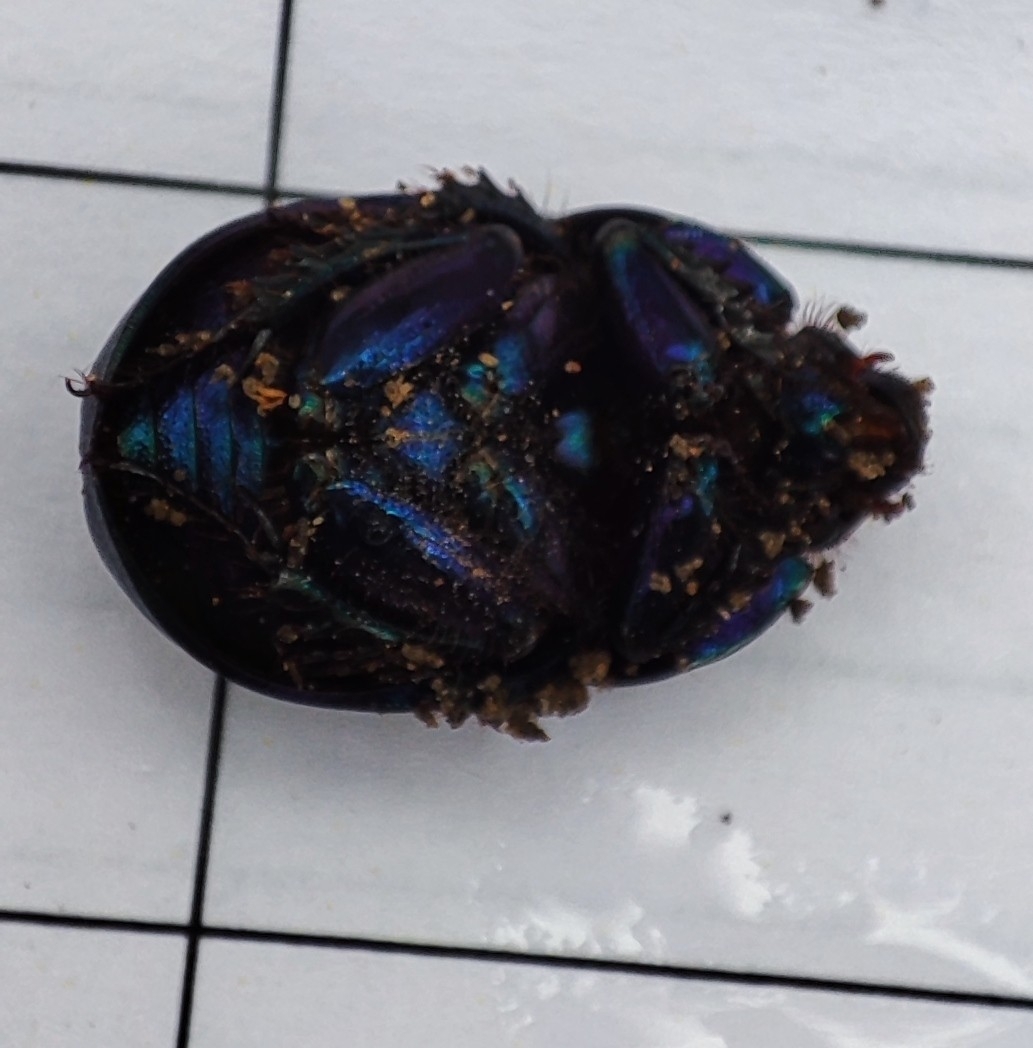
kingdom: Animalia
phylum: Arthropoda
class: Insecta
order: Coleoptera
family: Geotrupidae
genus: Anoplotrupes
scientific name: Anoplotrupes stercorosus
